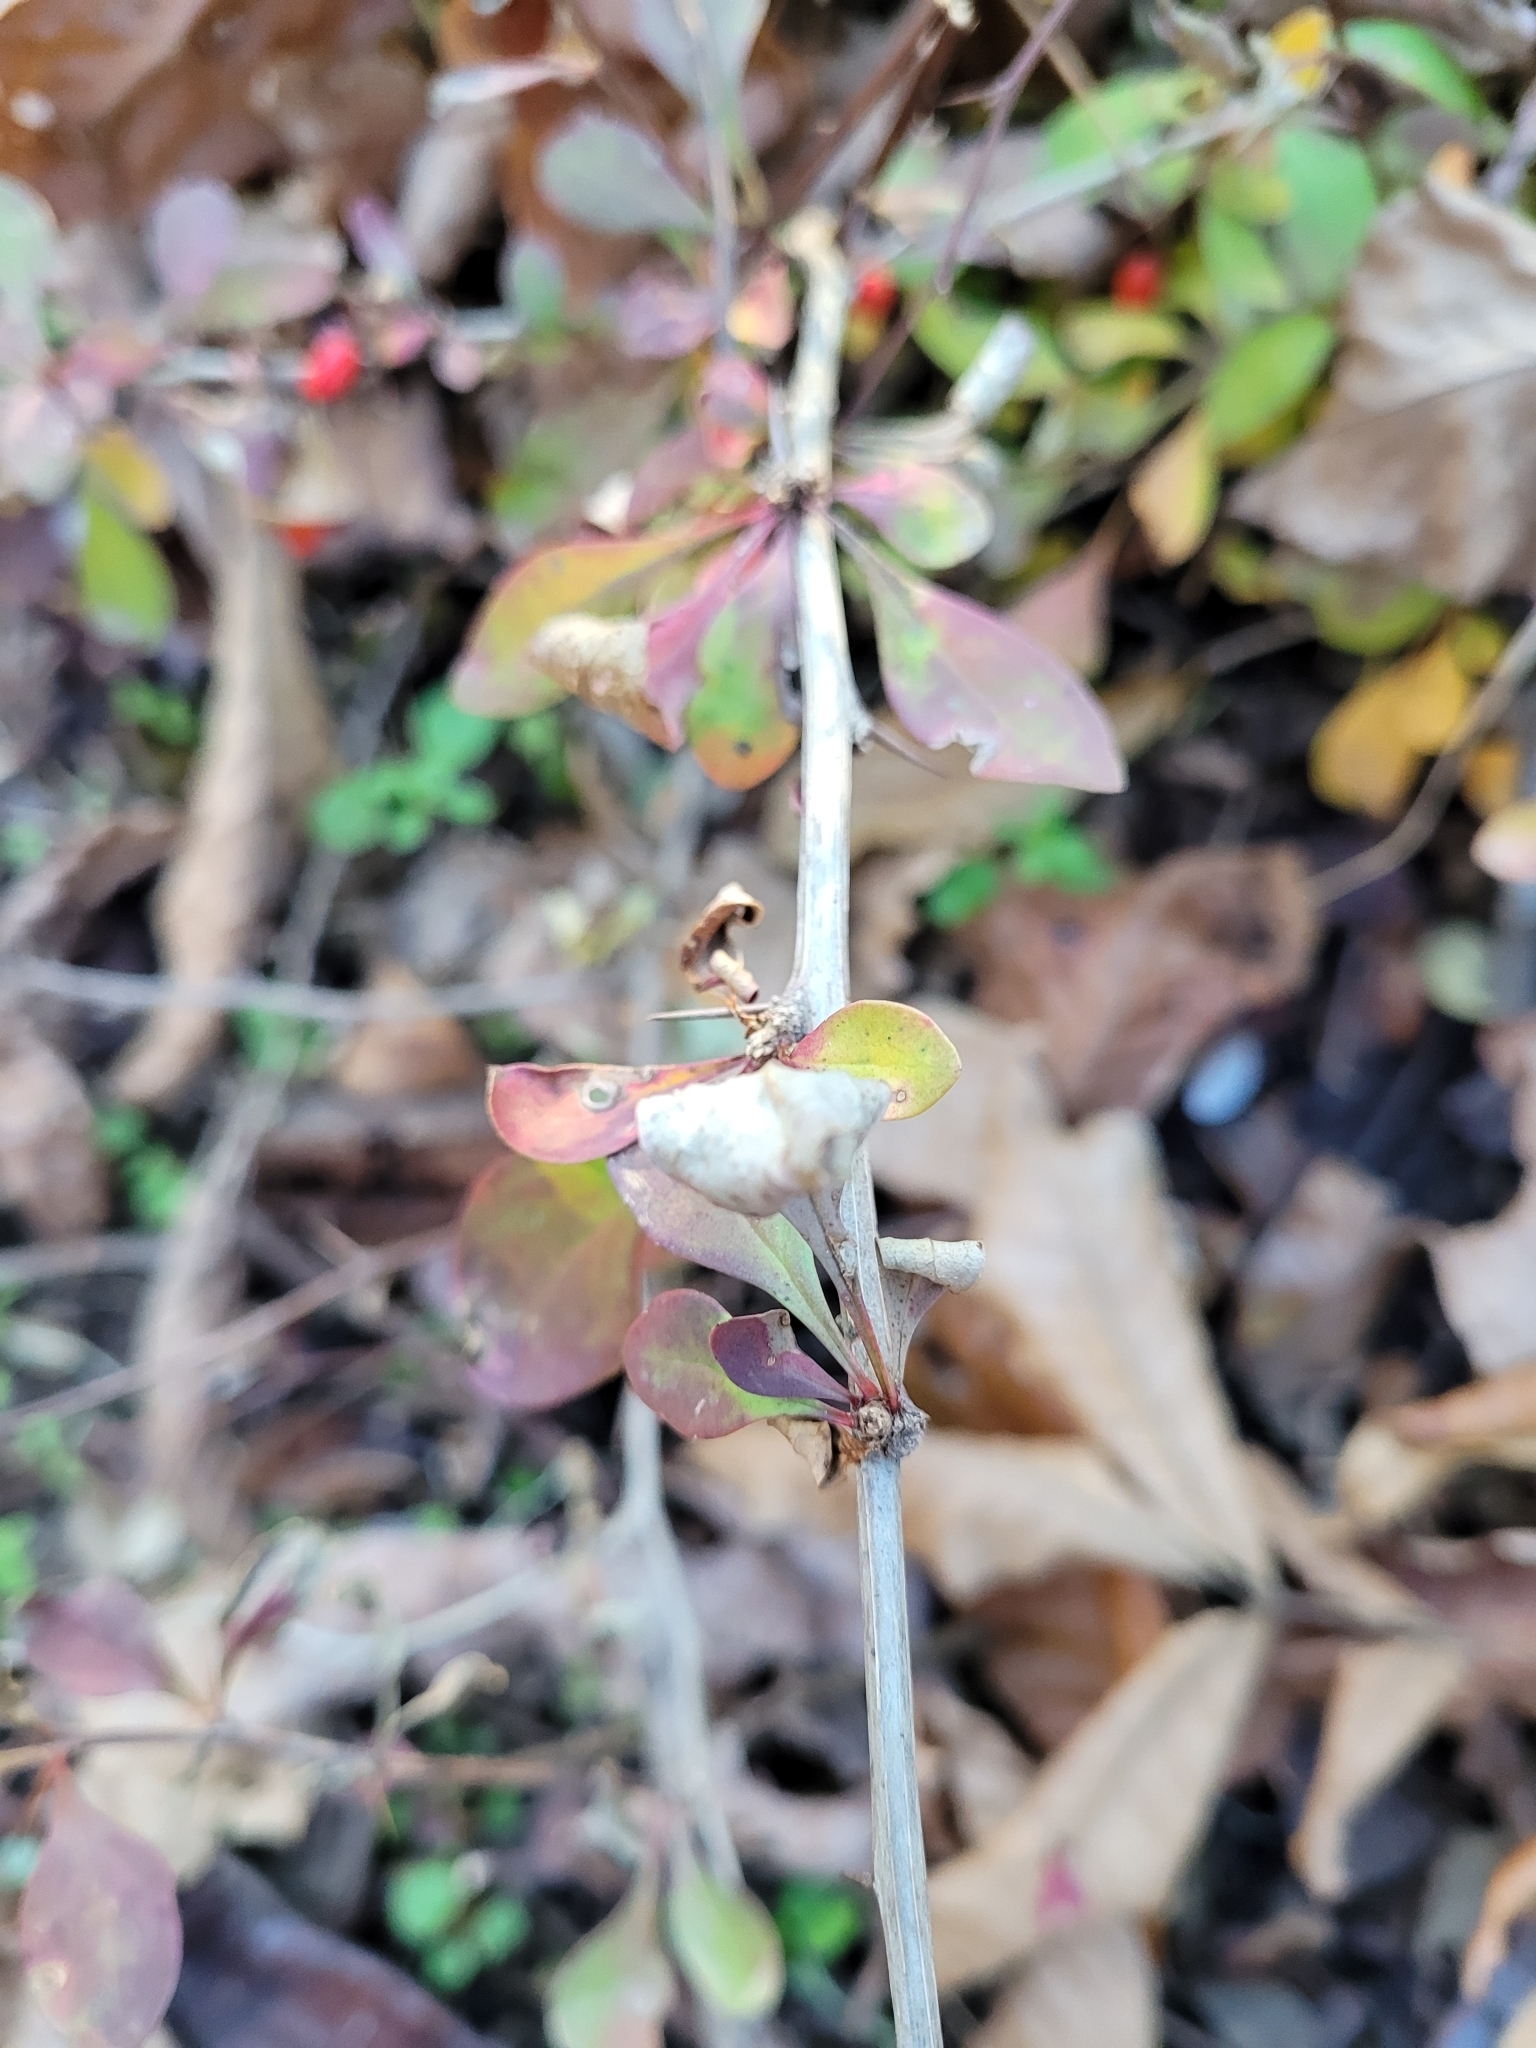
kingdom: Plantae
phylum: Tracheophyta
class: Magnoliopsida
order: Ranunculales
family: Berberidaceae
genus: Berberis
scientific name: Berberis thunbergii
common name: Japanese barberry
